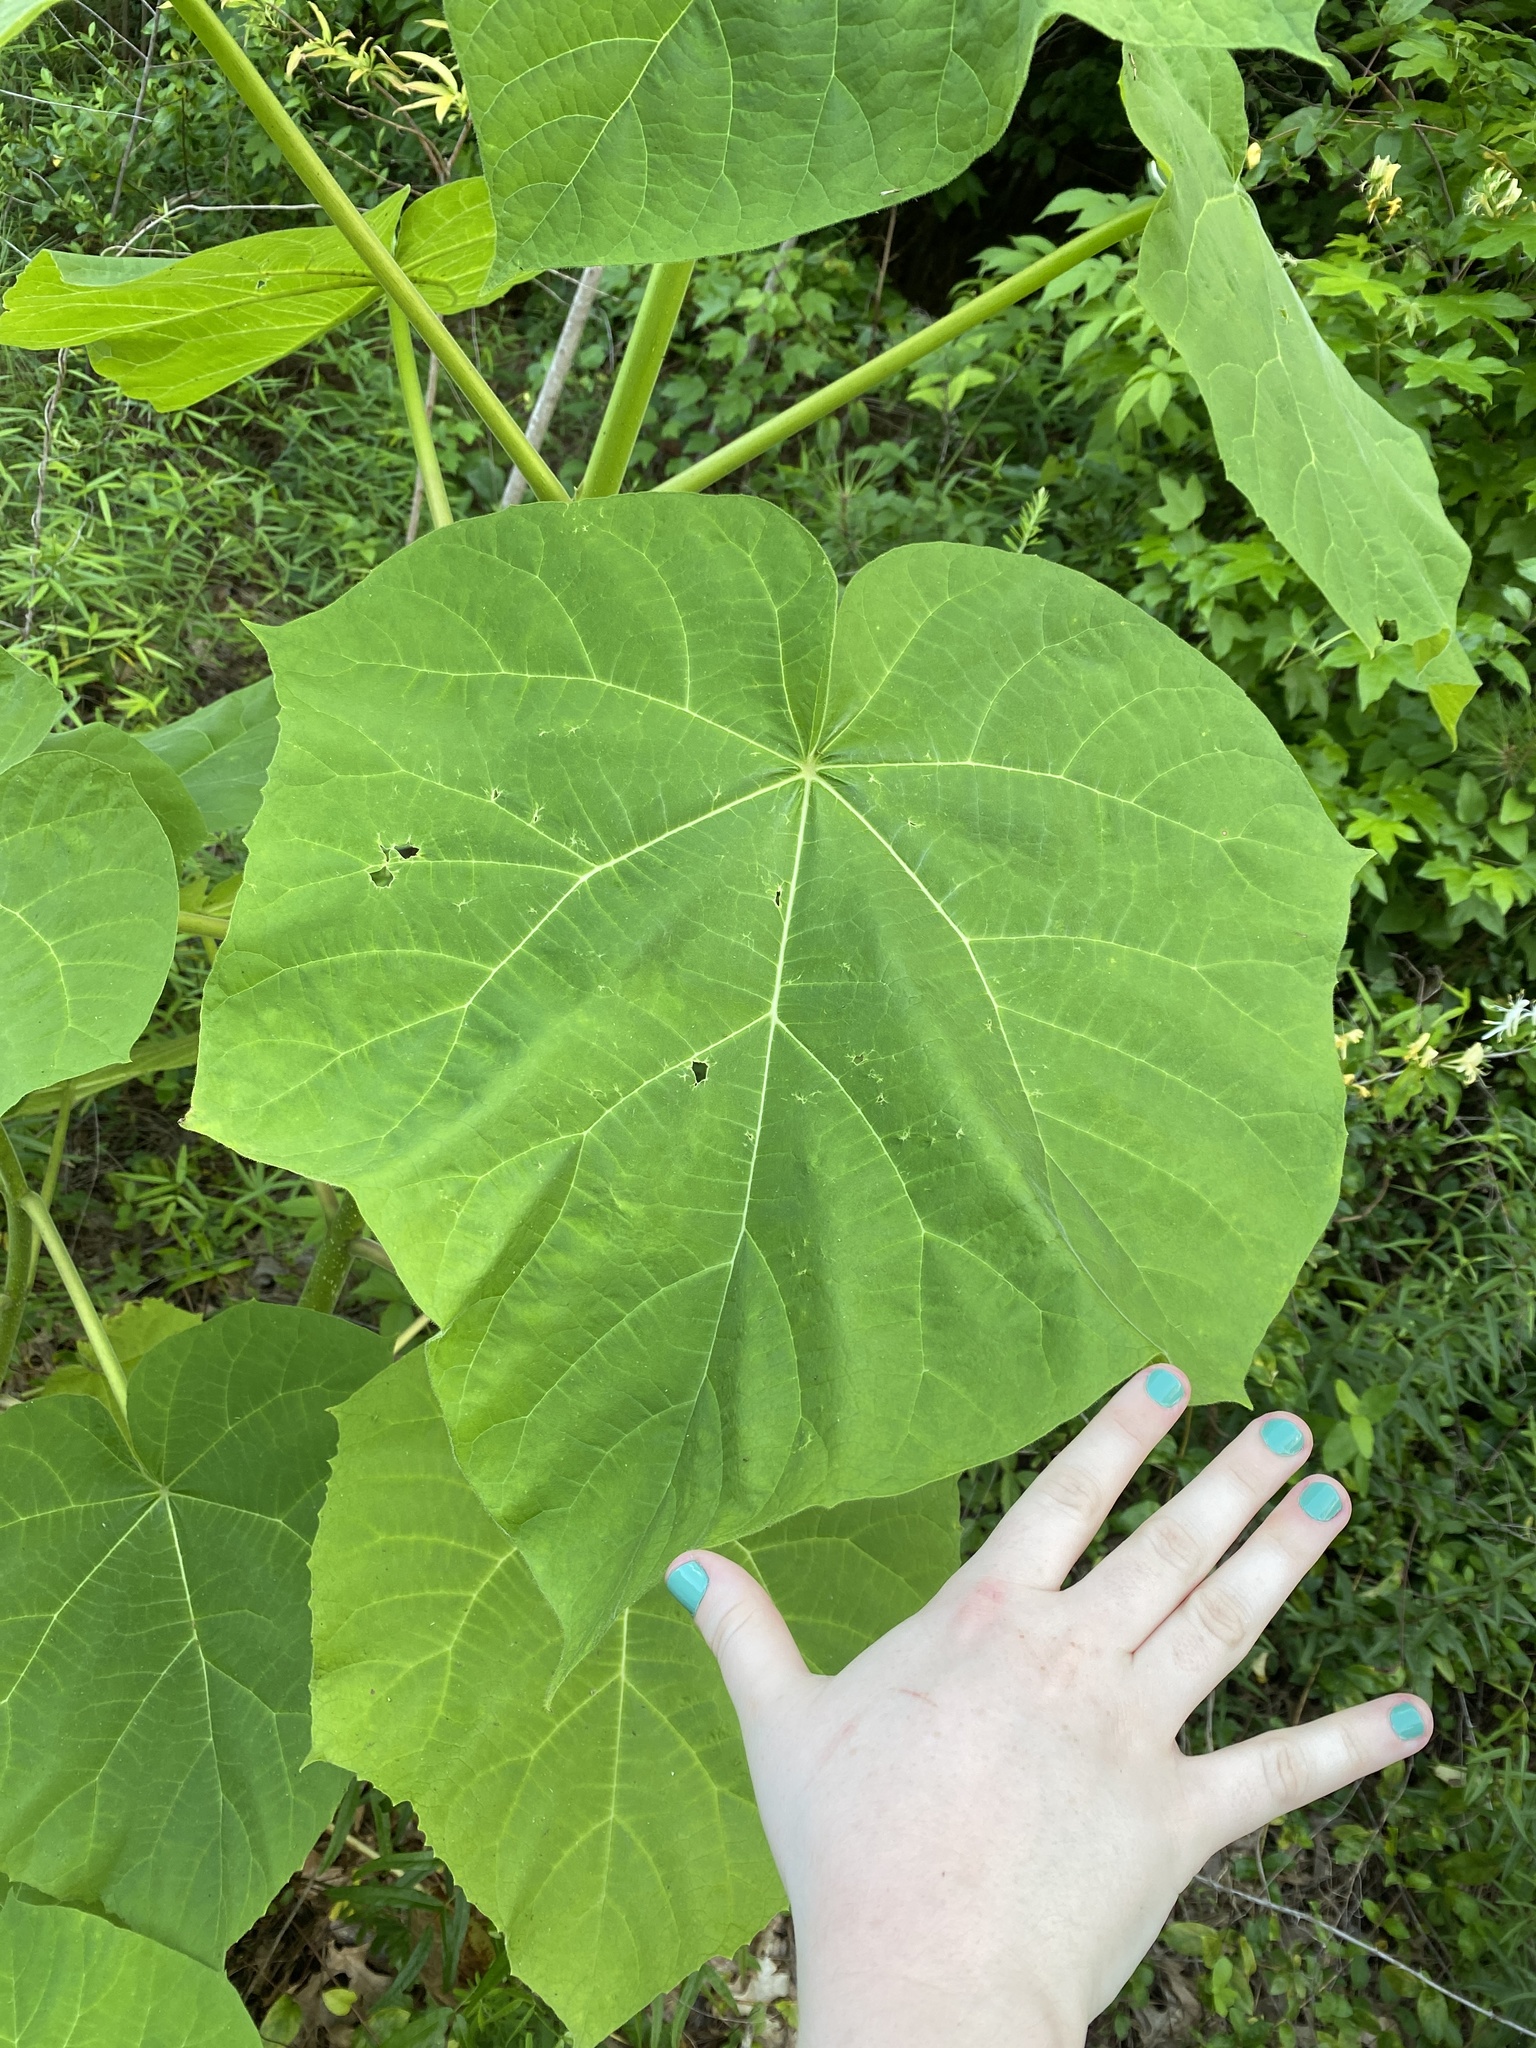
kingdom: Plantae
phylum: Tracheophyta
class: Magnoliopsida
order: Lamiales
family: Paulowniaceae
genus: Paulownia
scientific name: Paulownia tomentosa
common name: Foxglove-tree
